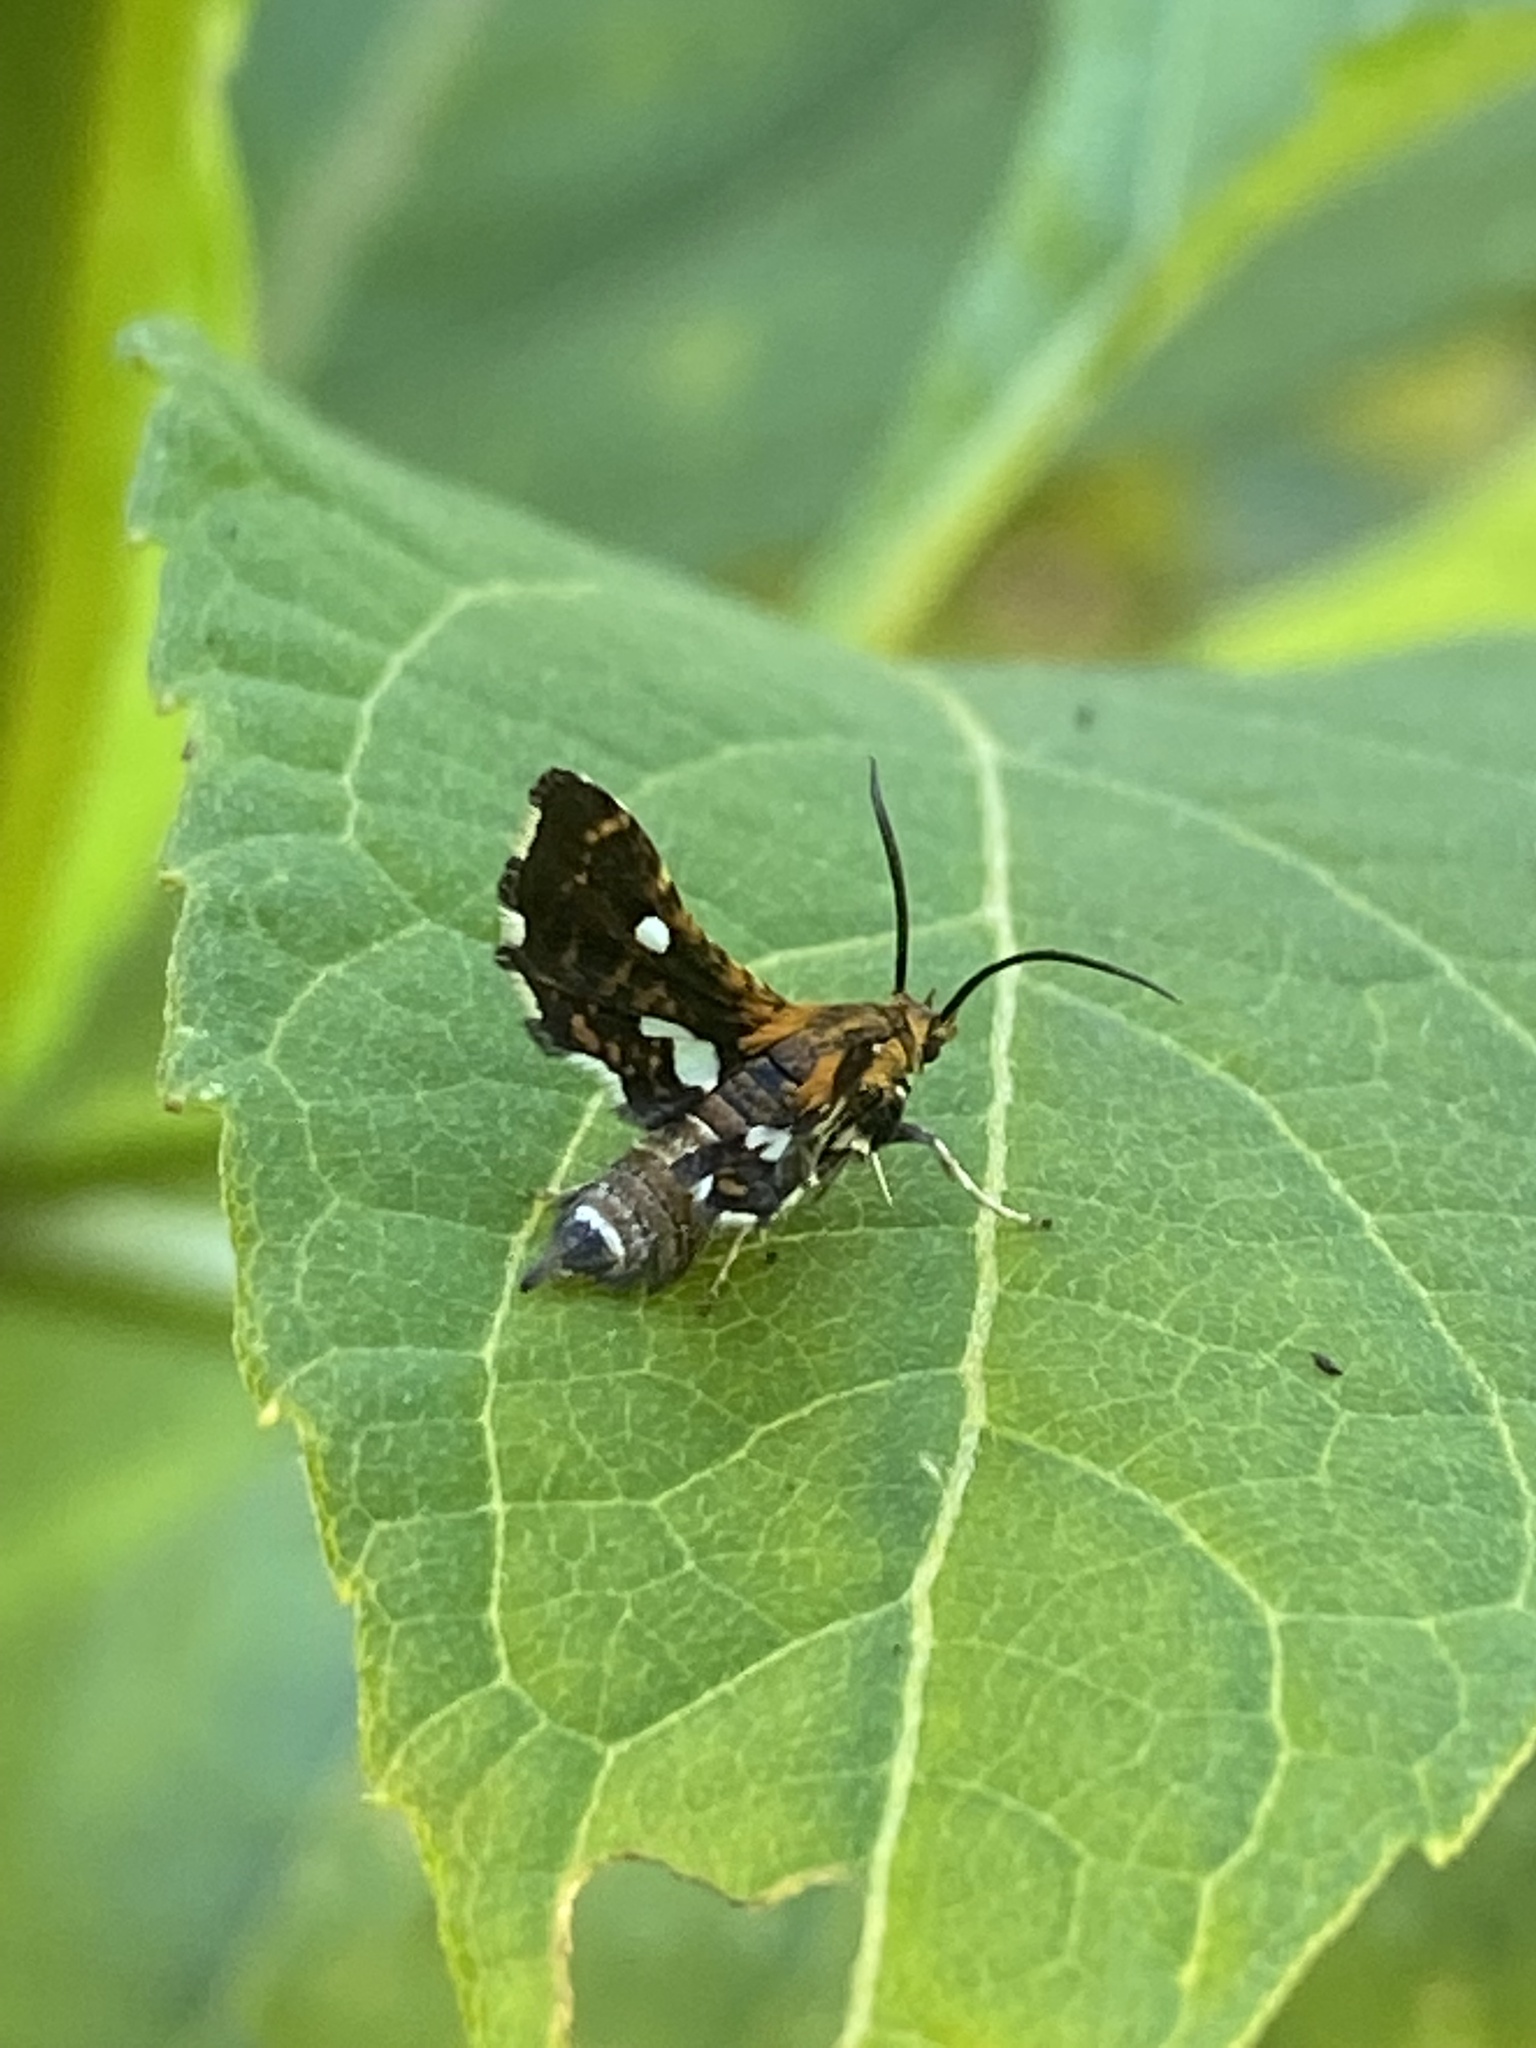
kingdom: Animalia
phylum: Arthropoda
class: Insecta
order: Lepidoptera
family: Thyrididae
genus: Thyris
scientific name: Thyris maculata
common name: Spotted thyris moth
